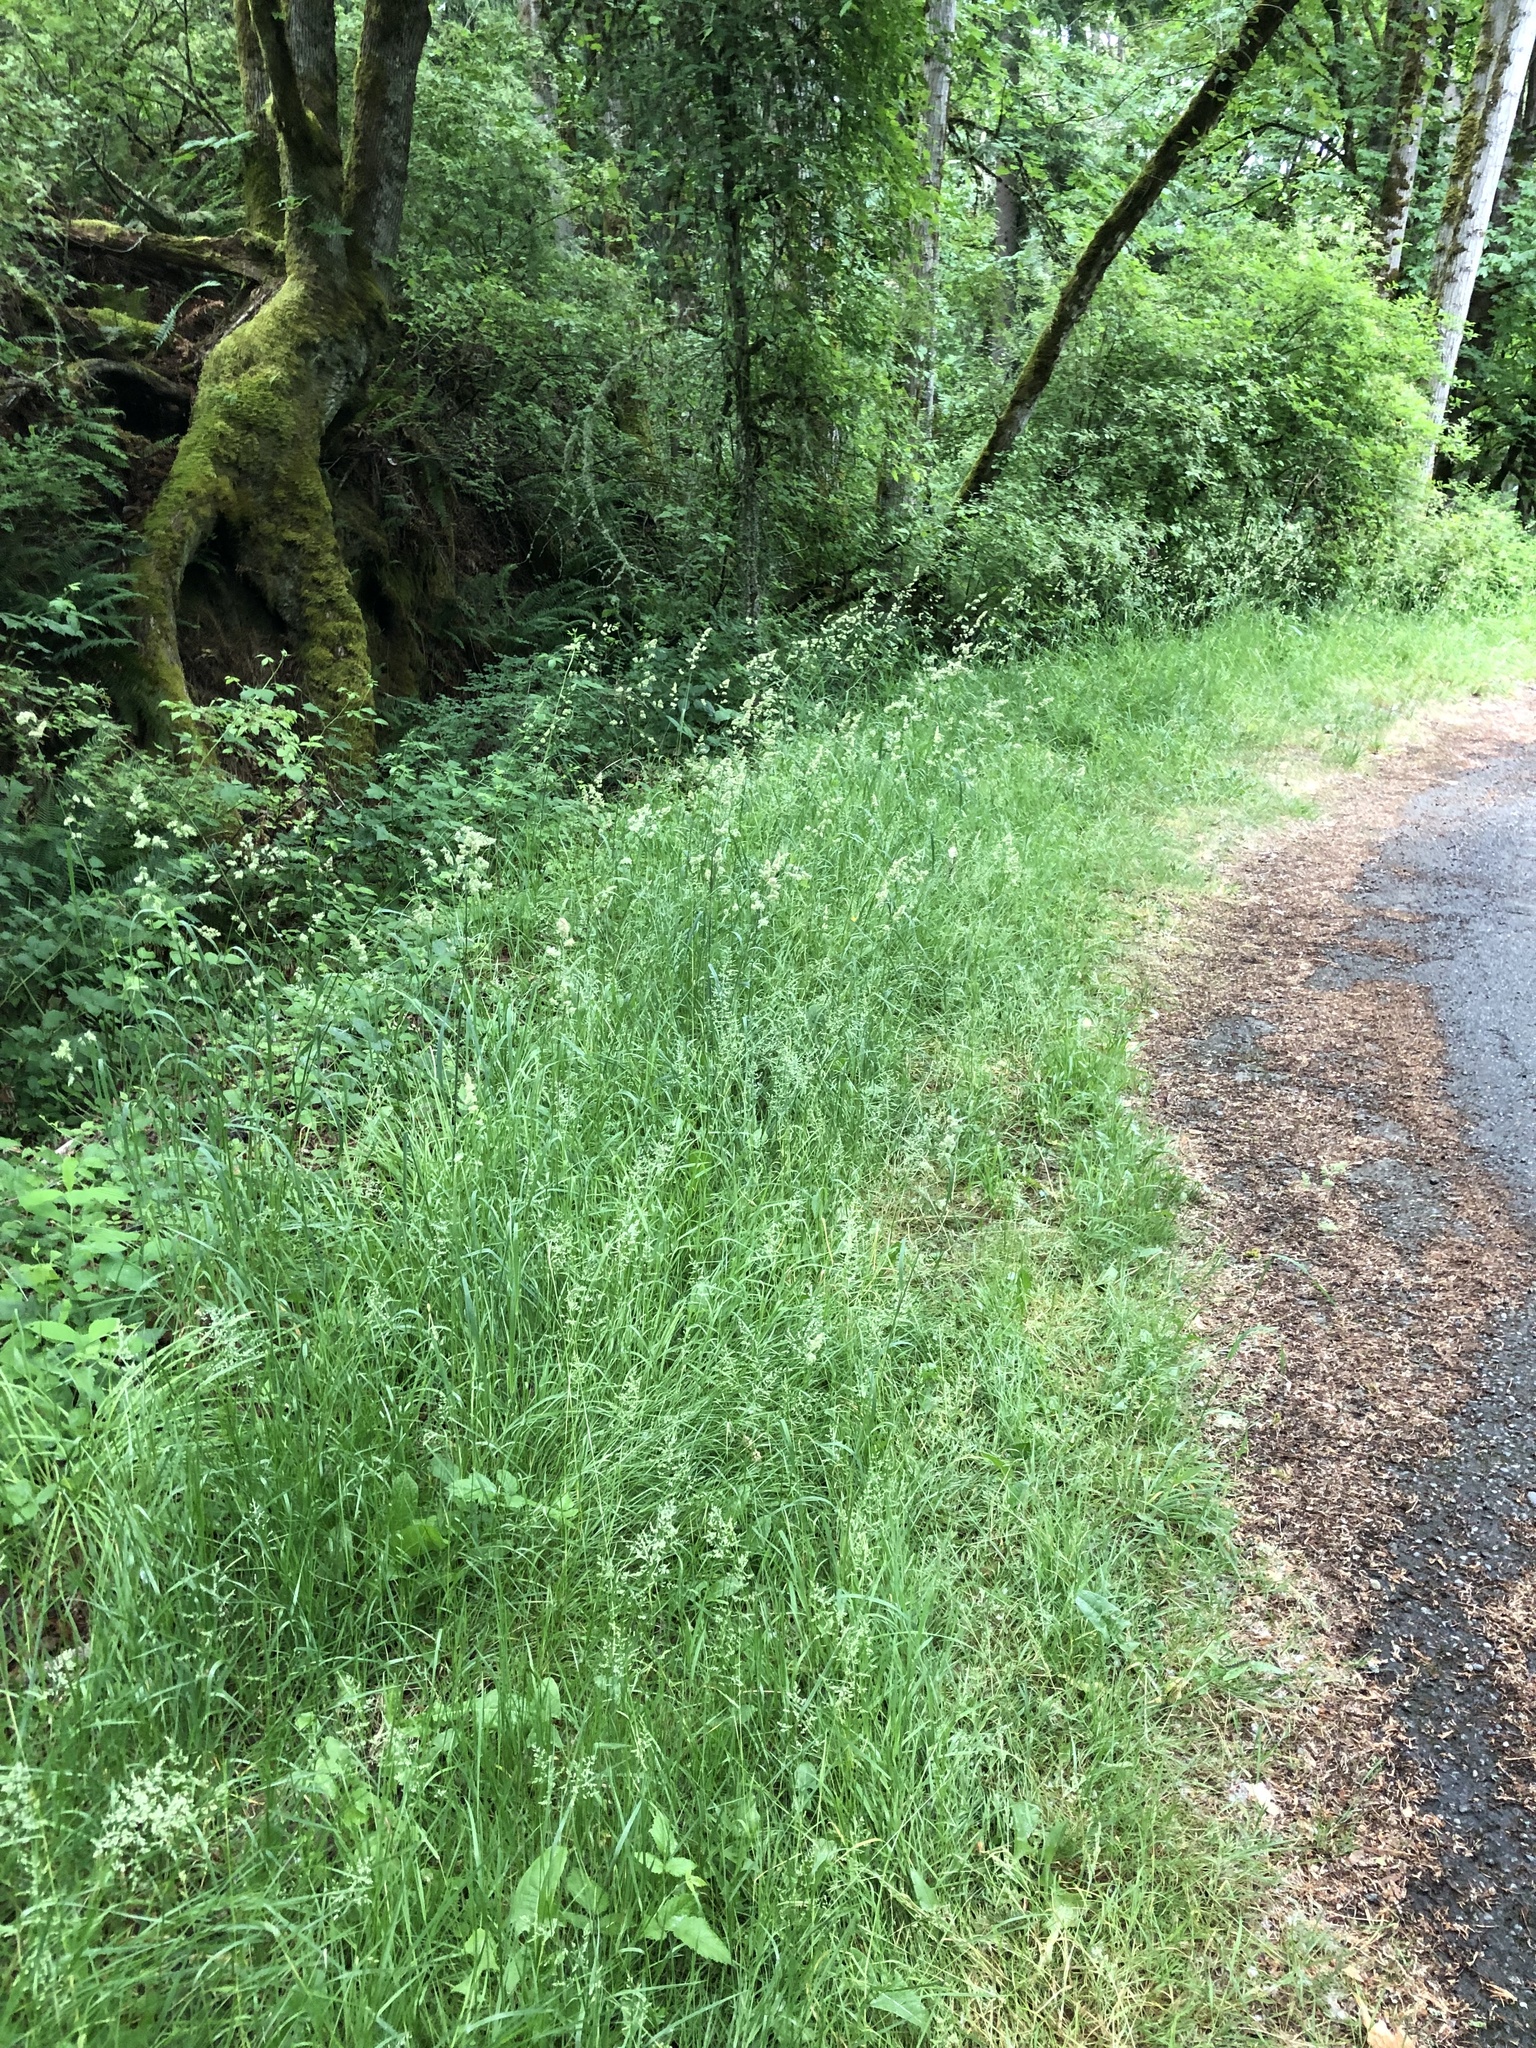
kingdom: Plantae
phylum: Tracheophyta
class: Liliopsida
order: Poales
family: Poaceae
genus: Dactylis
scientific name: Dactylis glomerata
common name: Orchardgrass
